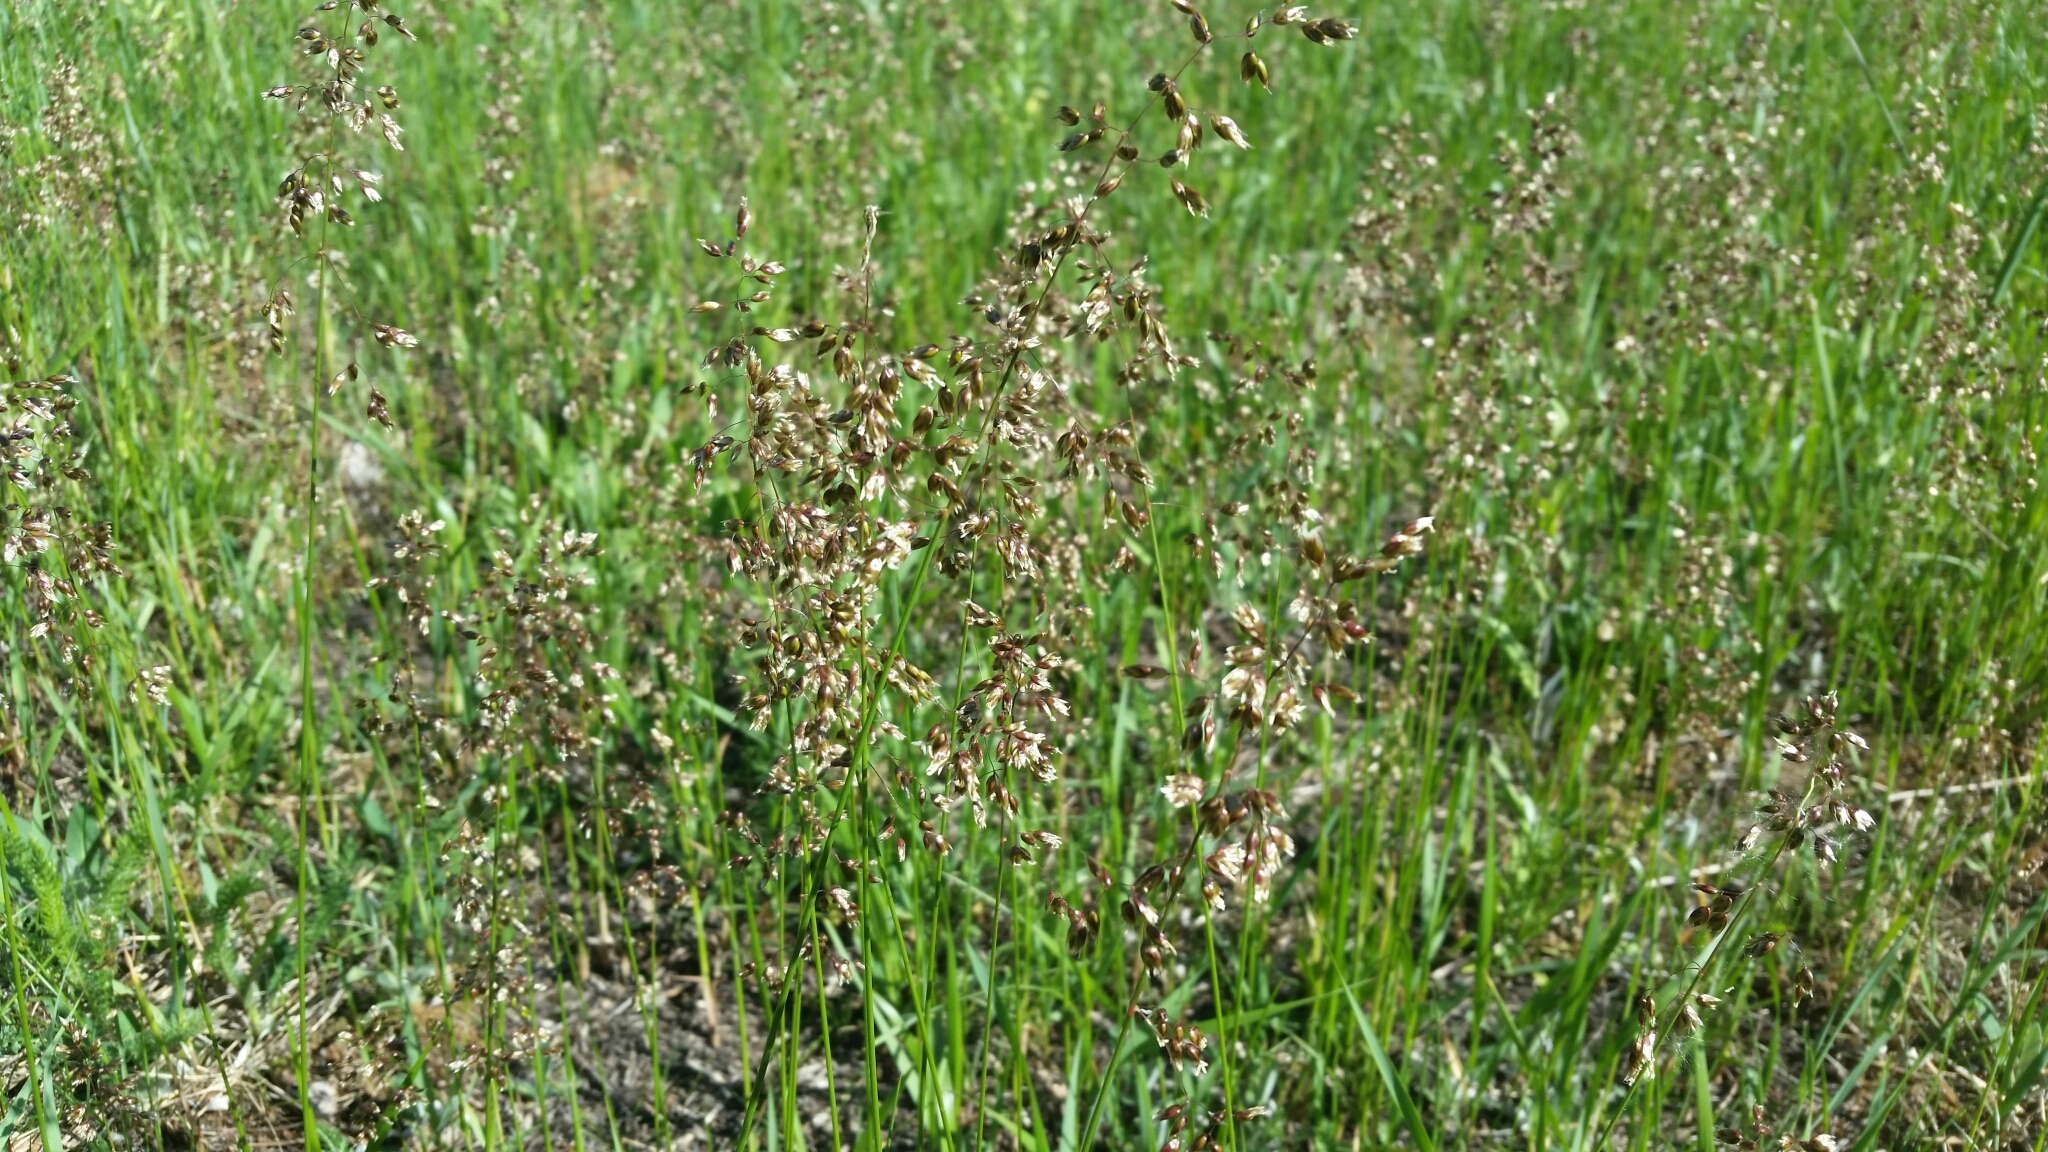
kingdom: Plantae
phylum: Tracheophyta
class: Liliopsida
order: Poales
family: Poaceae
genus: Anthoxanthum
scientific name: Anthoxanthum nitens
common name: Holy grass
